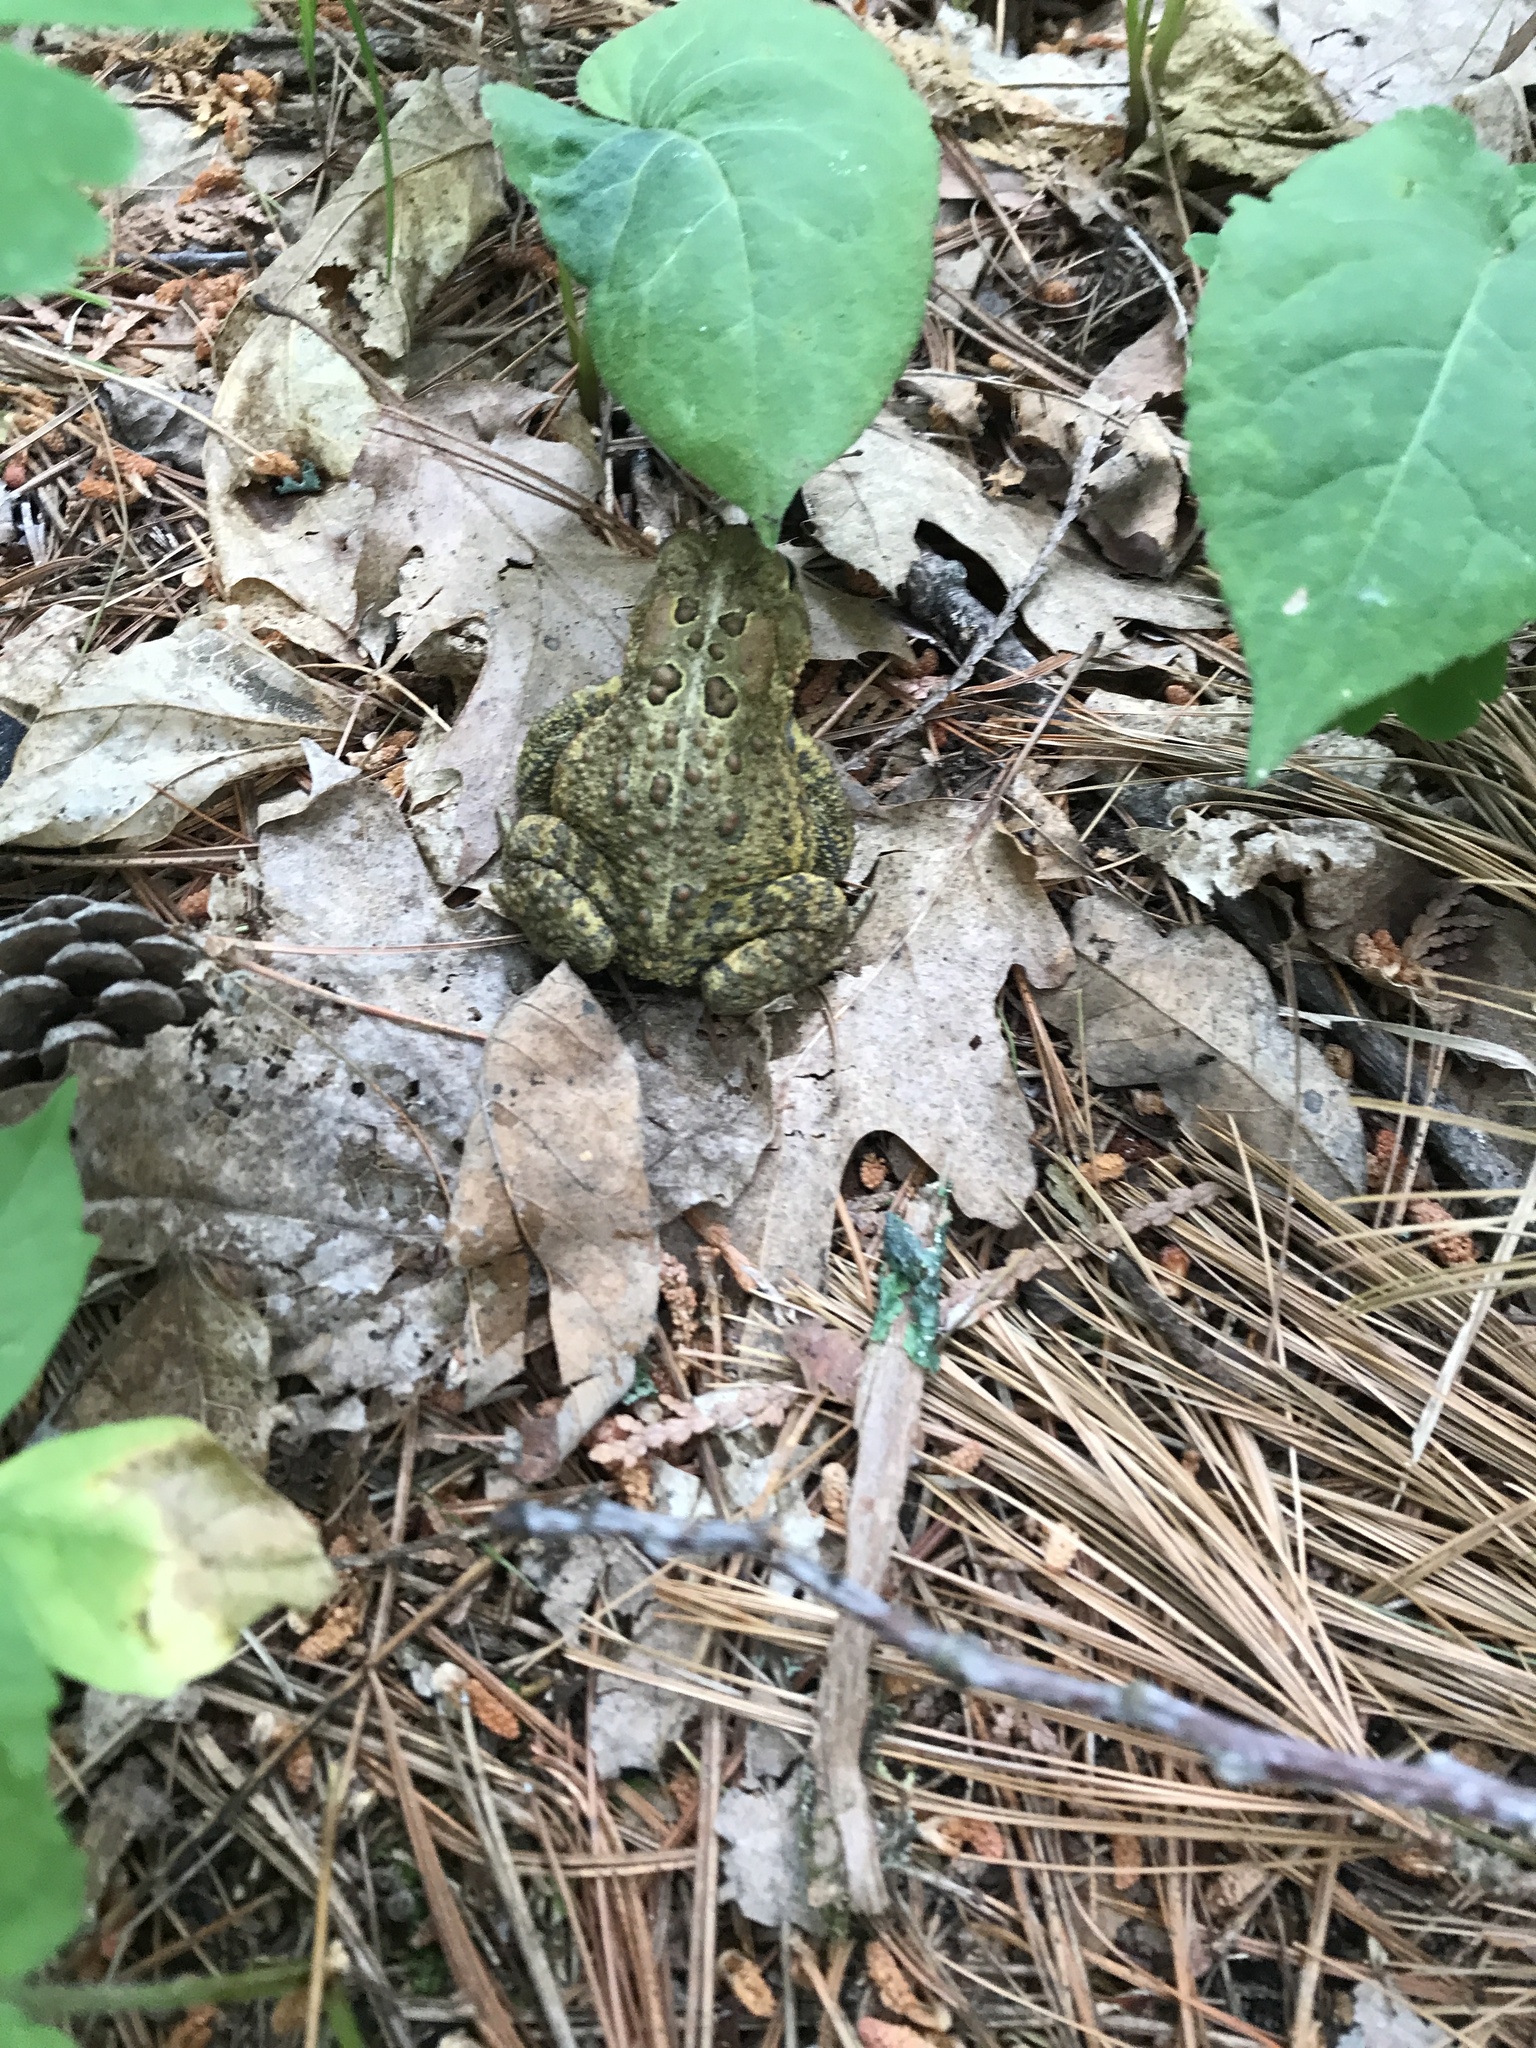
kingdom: Animalia
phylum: Chordata
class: Amphibia
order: Anura
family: Bufonidae
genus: Anaxyrus
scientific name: Anaxyrus americanus
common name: American toad
